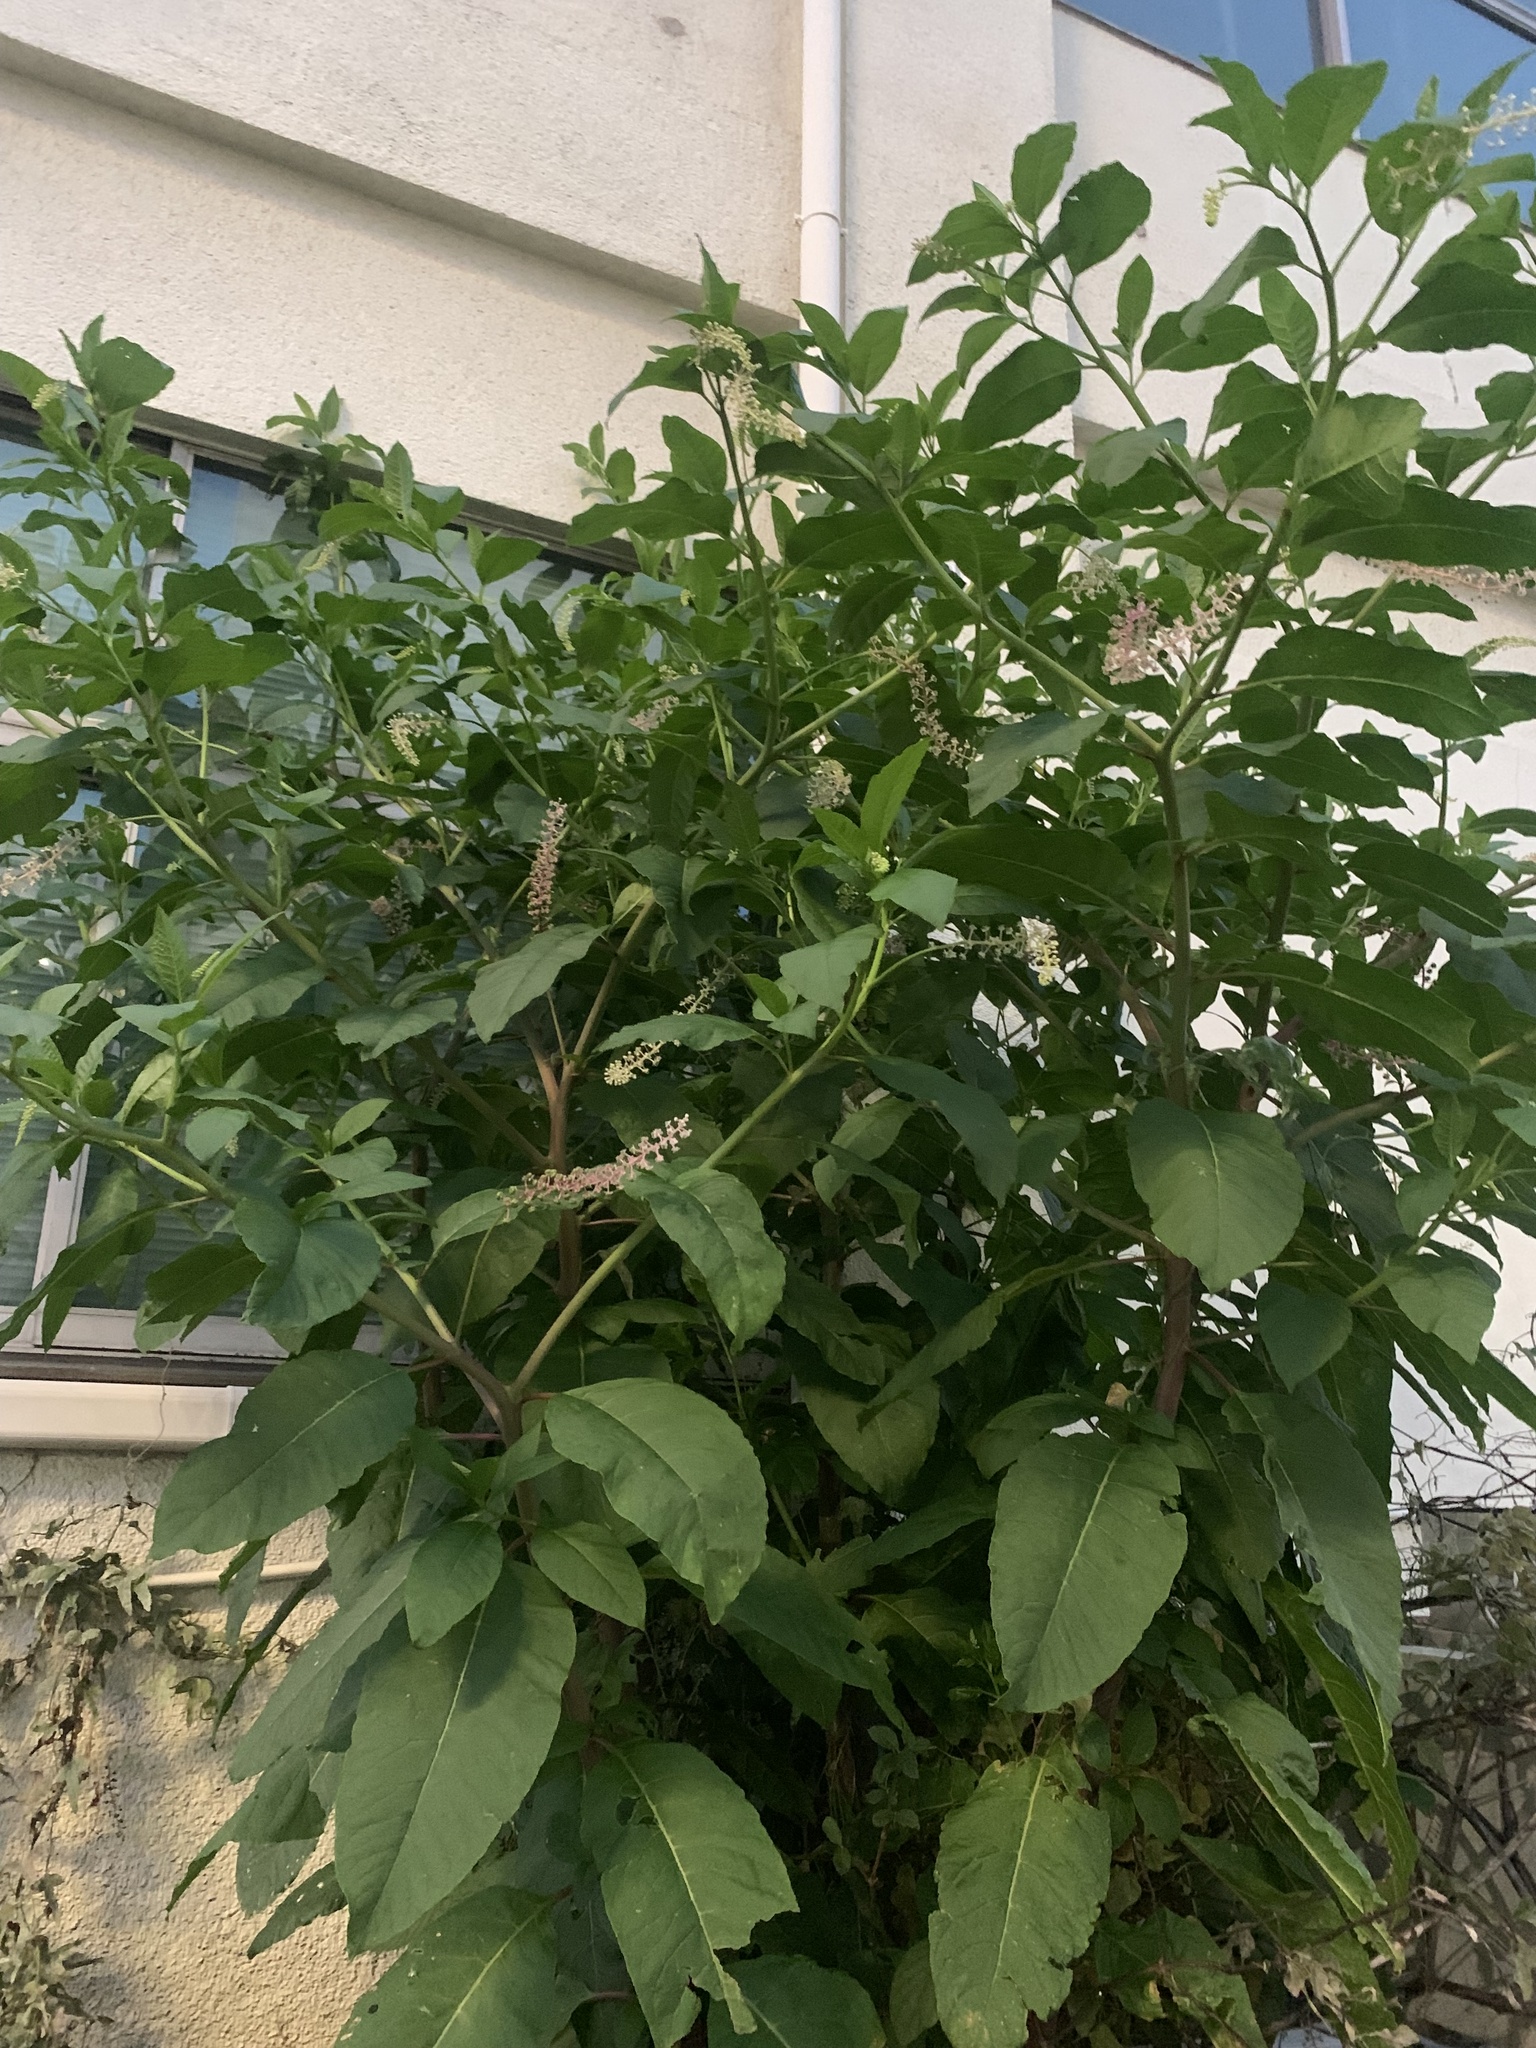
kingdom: Plantae
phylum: Tracheophyta
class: Magnoliopsida
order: Caryophyllales
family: Phytolaccaceae
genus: Phytolacca
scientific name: Phytolacca americana
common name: American pokeweed
